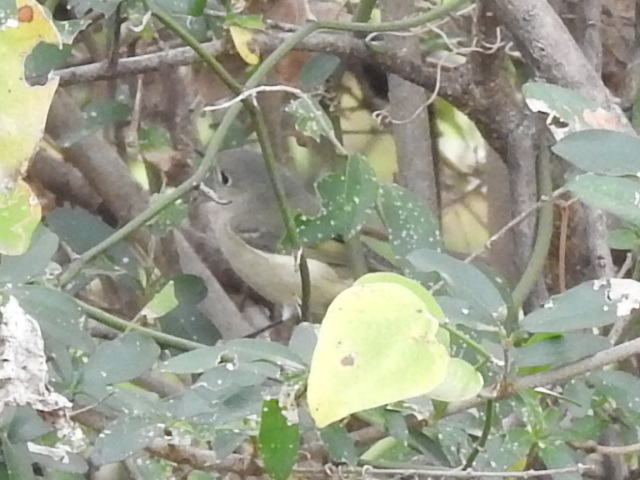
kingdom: Animalia
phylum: Chordata
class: Aves
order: Passeriformes
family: Regulidae
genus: Regulus
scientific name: Regulus calendula
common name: Ruby-crowned kinglet
